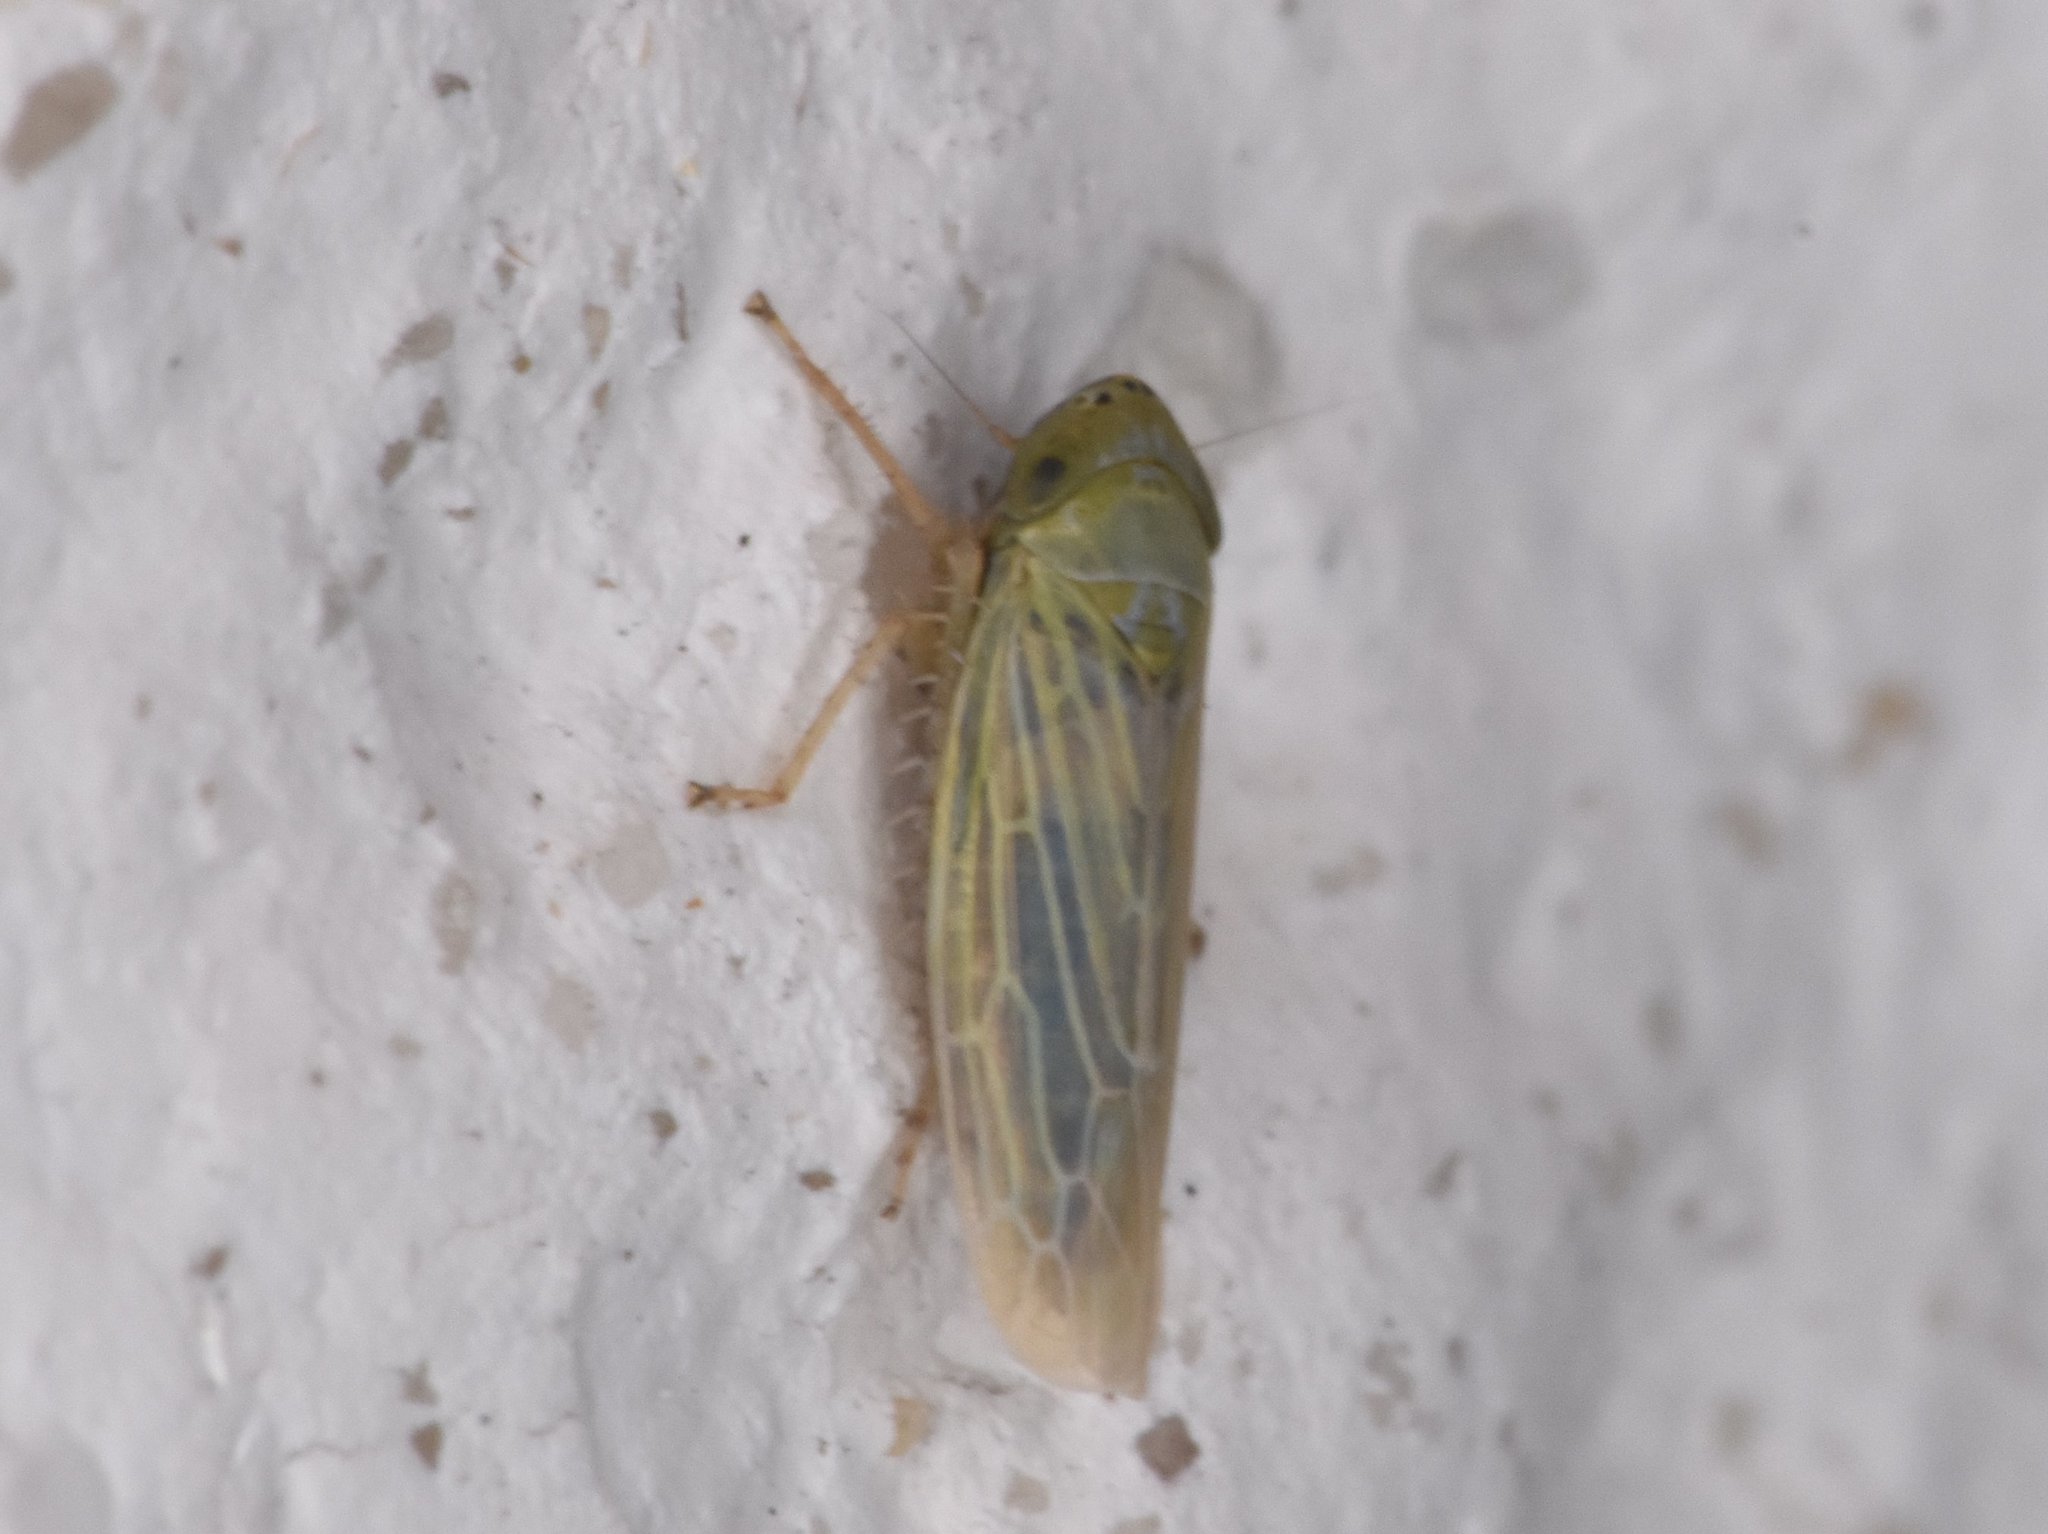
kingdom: Animalia
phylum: Arthropoda
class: Insecta
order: Hemiptera
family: Cicadellidae
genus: Graminella
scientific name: Graminella nigrifrons
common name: Blackfaced leafhopper
